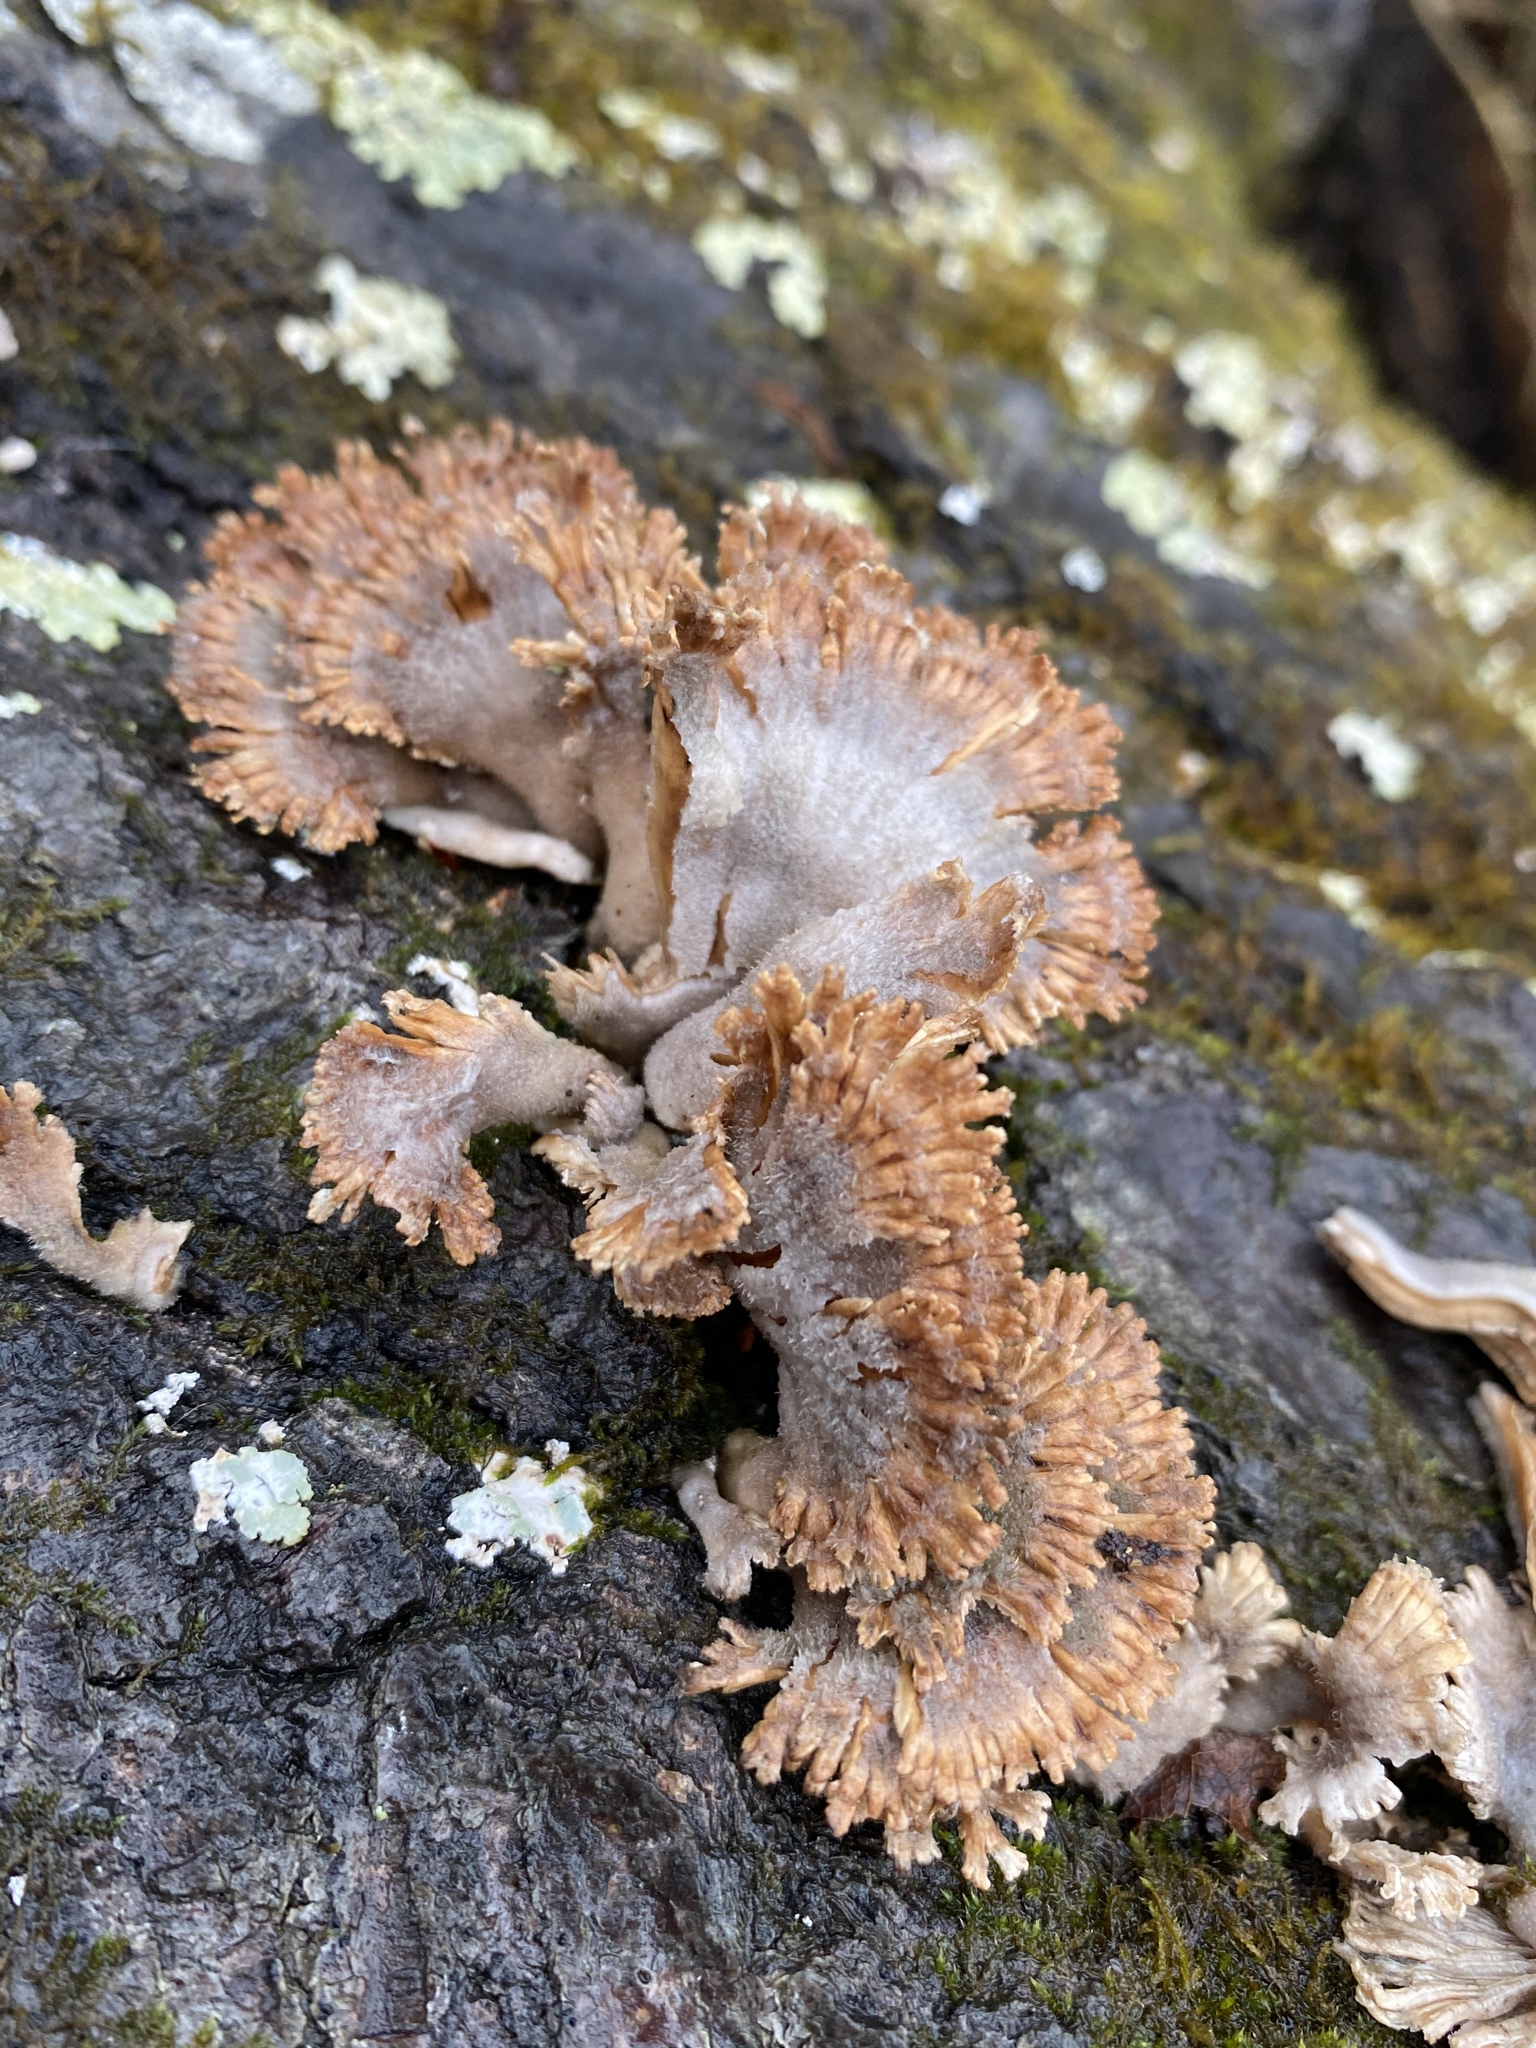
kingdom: Fungi
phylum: Basidiomycota
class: Agaricomycetes
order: Agaricales
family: Schizophyllaceae
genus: Schizophyllum
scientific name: Schizophyllum commune
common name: Common porecrust
